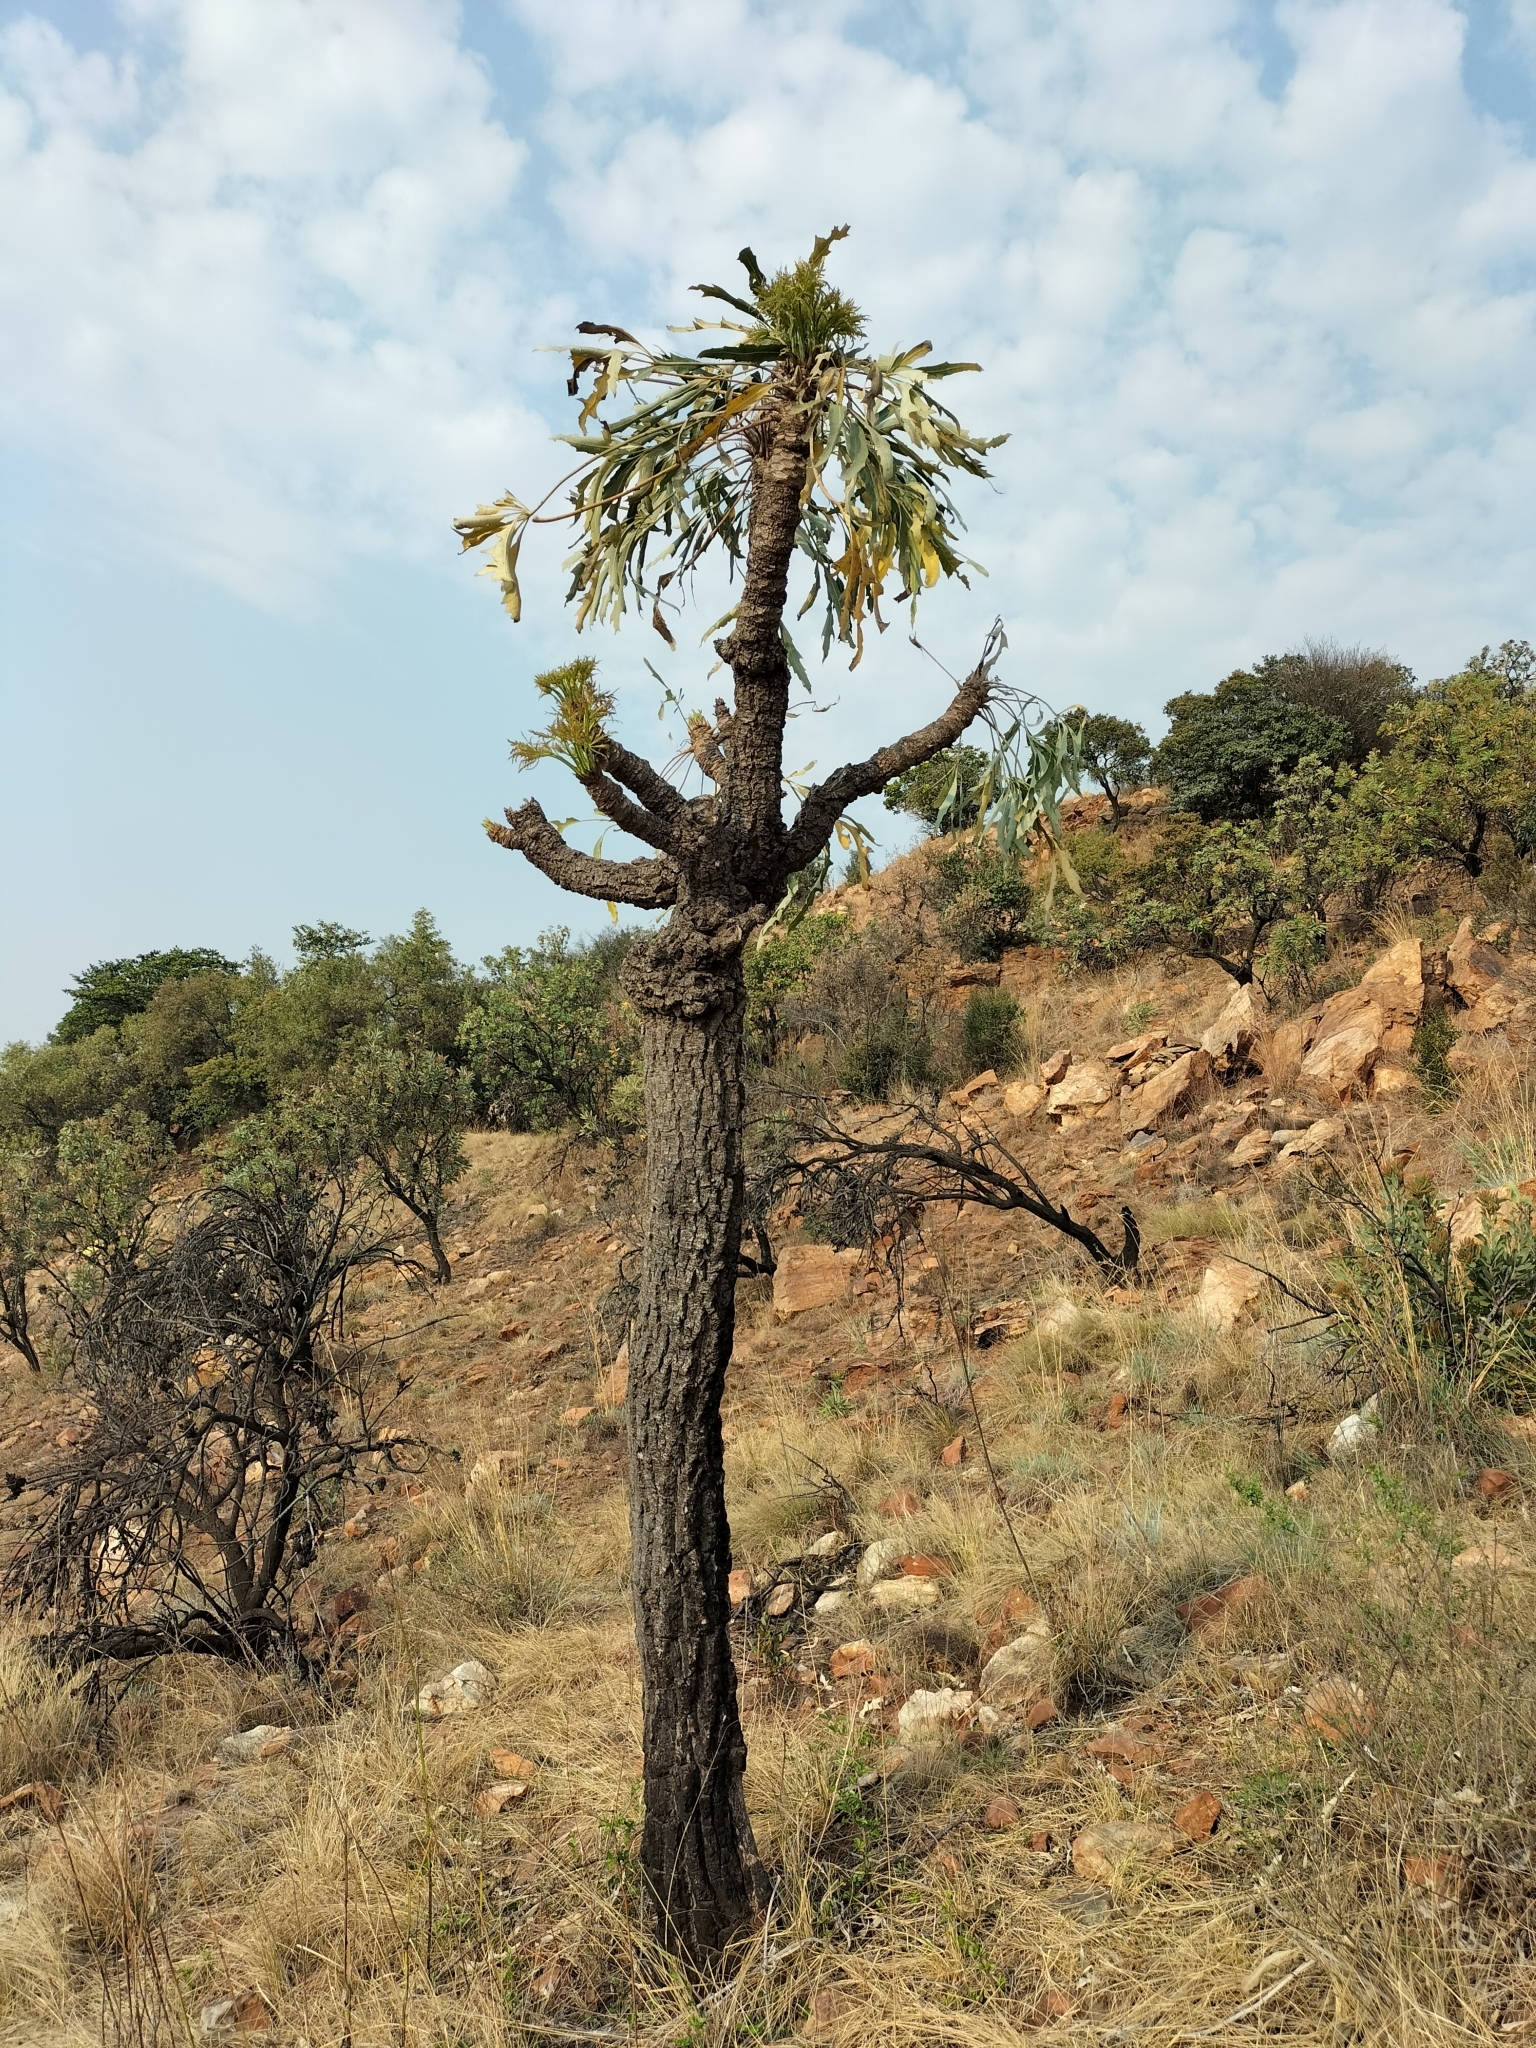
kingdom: Plantae
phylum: Tracheophyta
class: Magnoliopsida
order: Apiales
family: Araliaceae
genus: Cussonia
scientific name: Cussonia paniculata
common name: Cabbagetree
